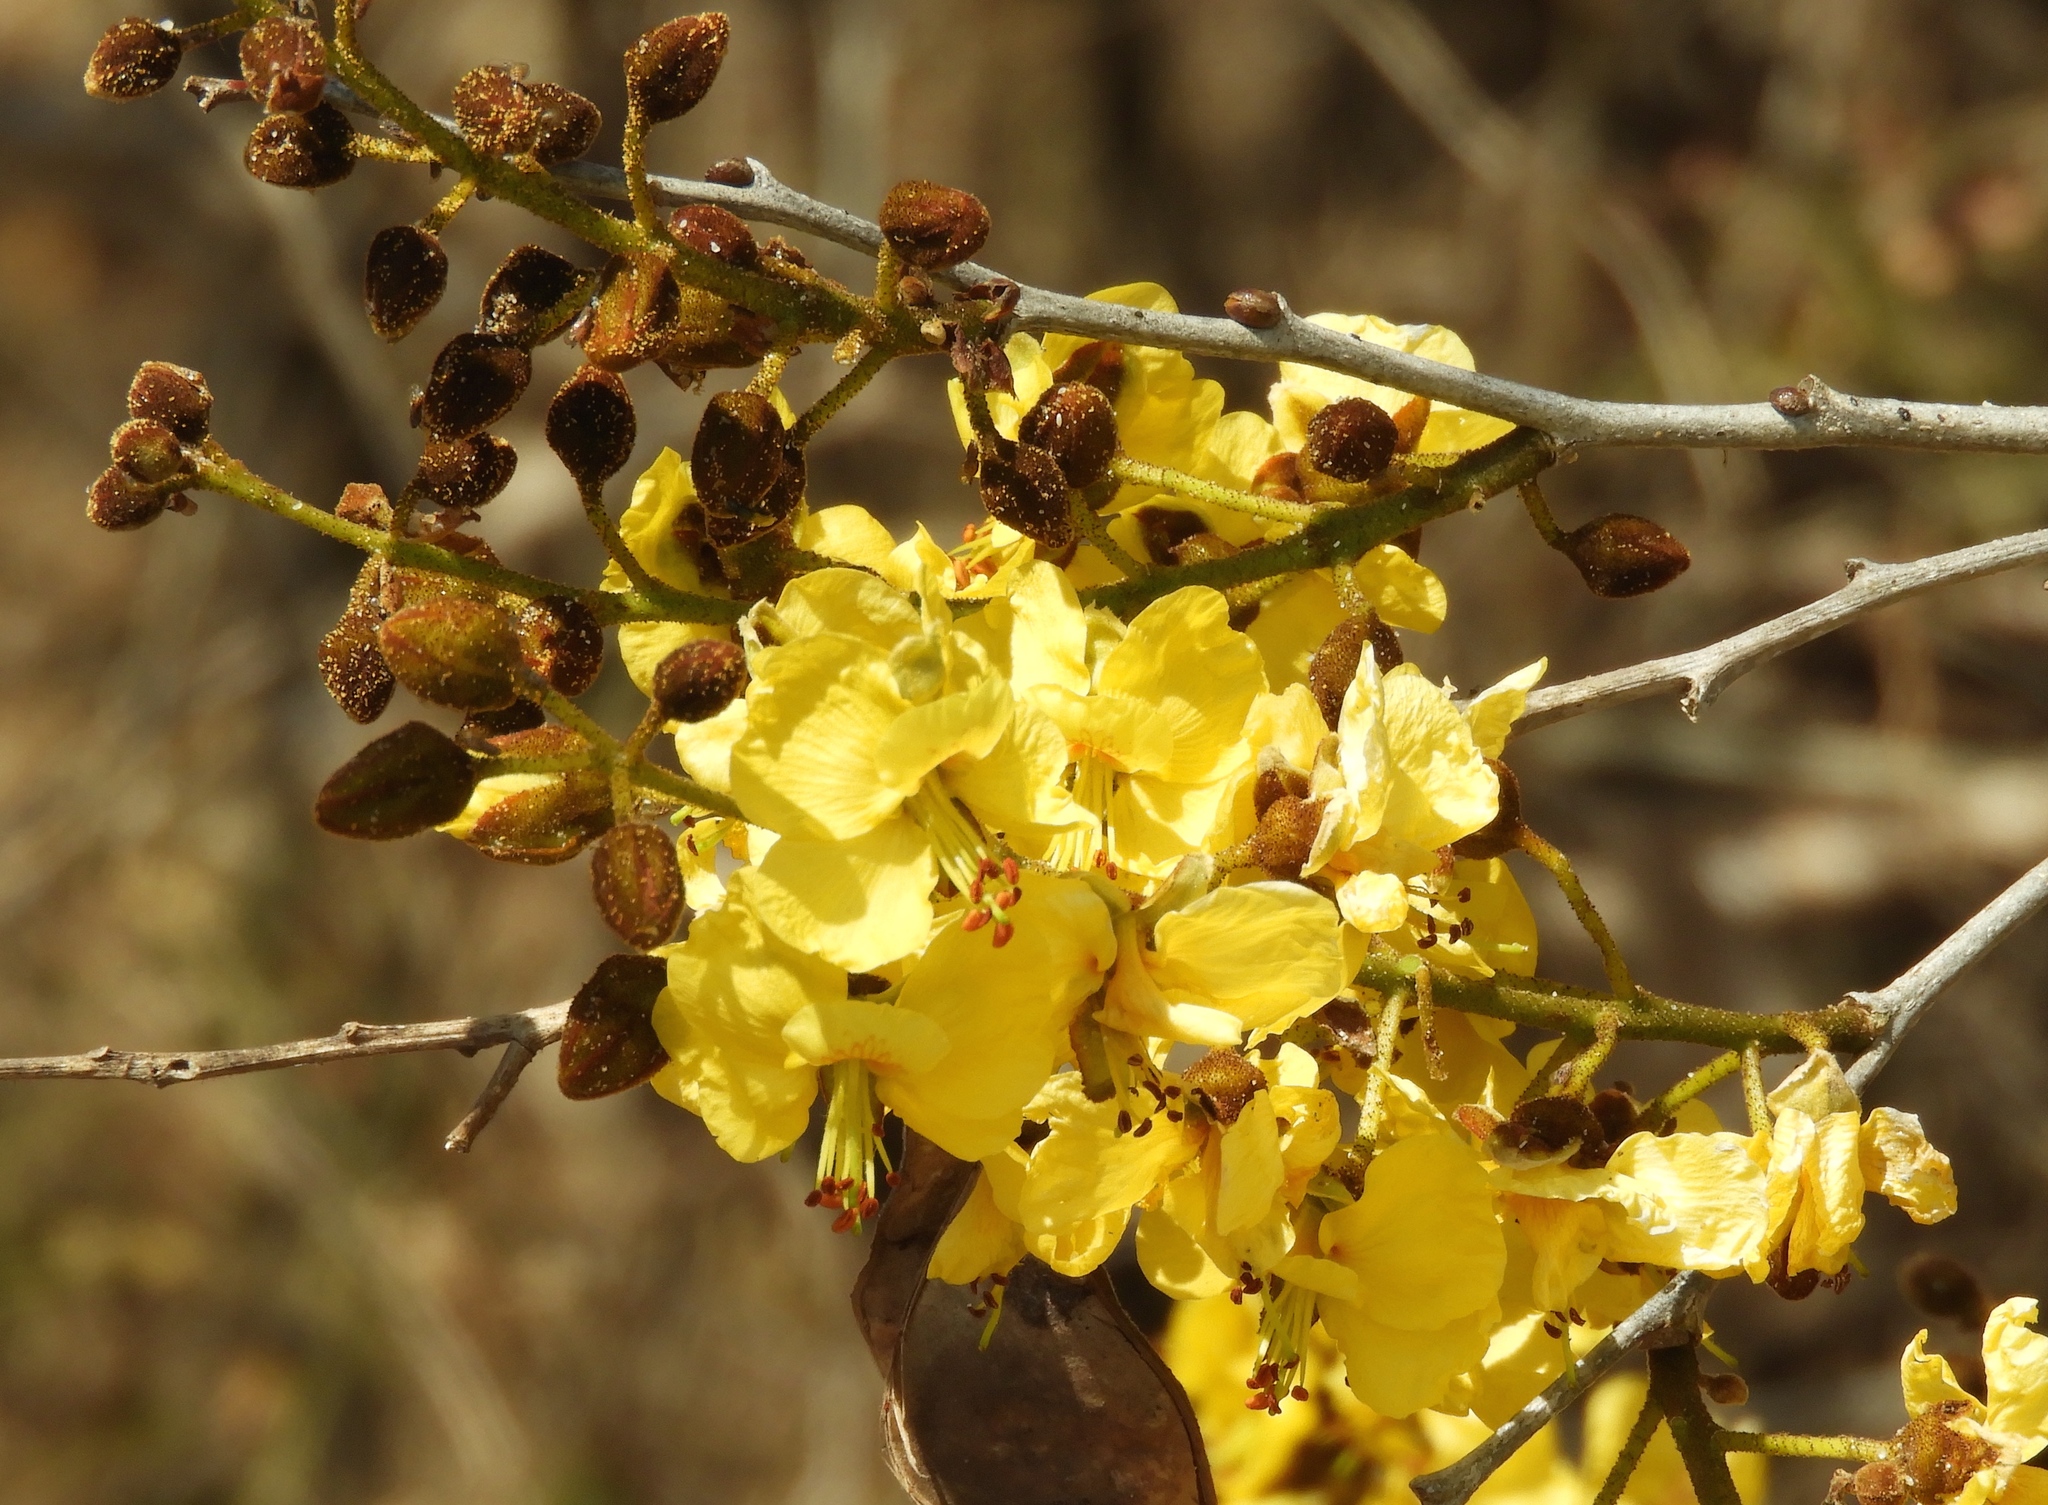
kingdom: Plantae
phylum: Tracheophyta
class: Magnoliopsida
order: Fabales
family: Fabaceae
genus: Cenostigma
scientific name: Cenostigma eriostachys
